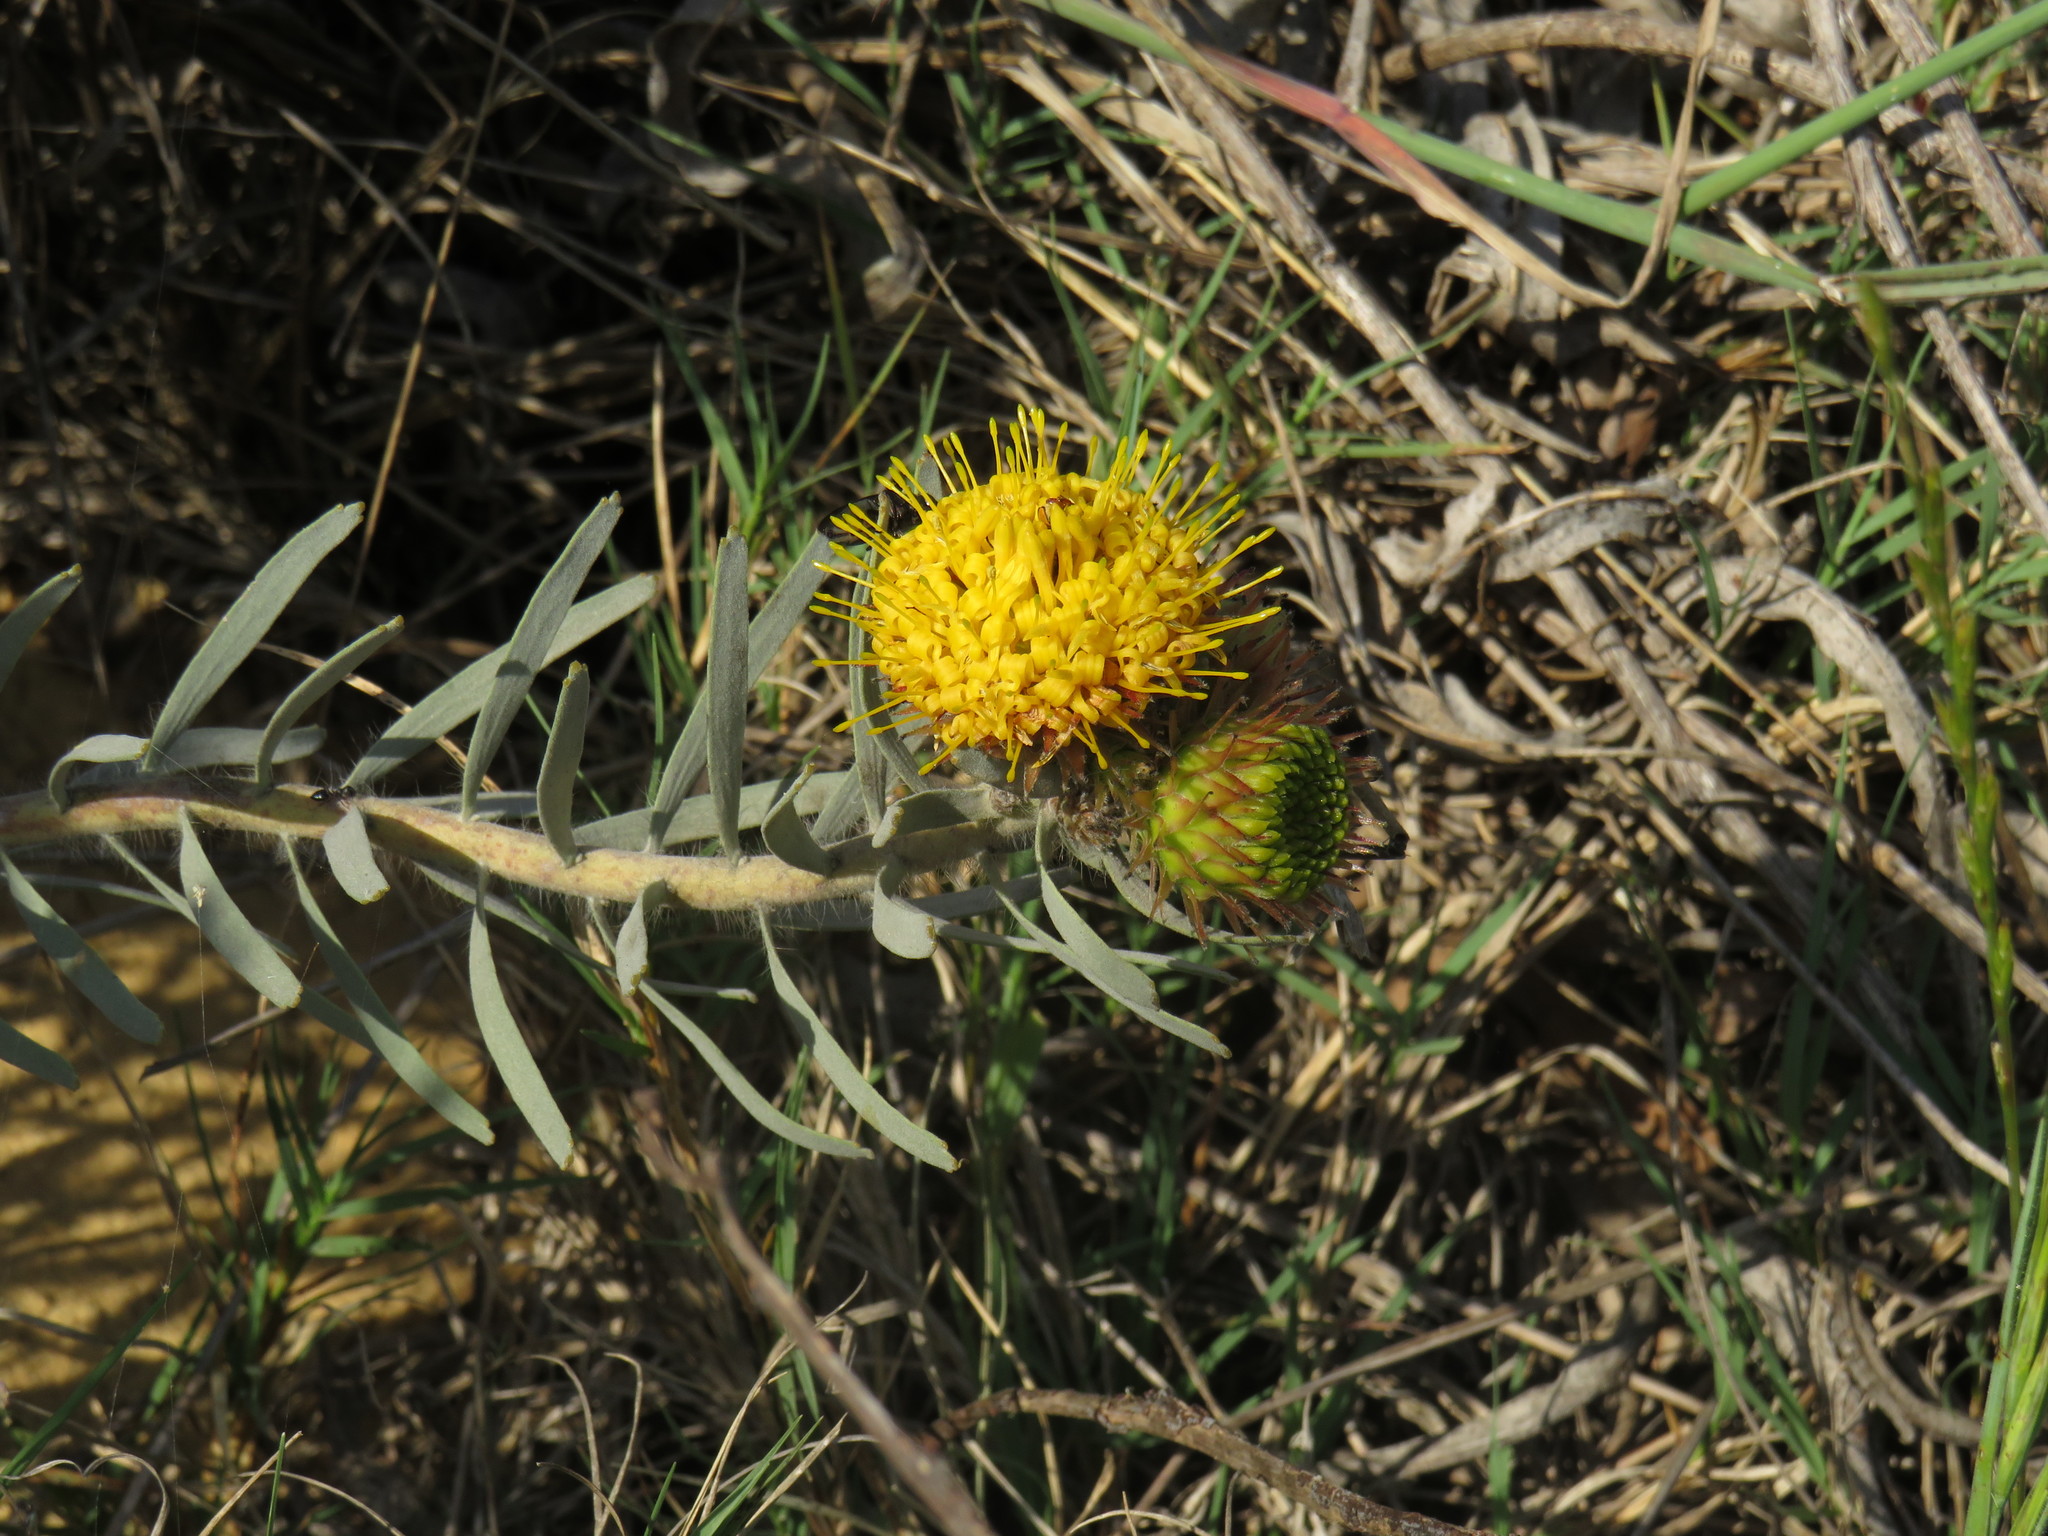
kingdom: Plantae
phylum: Tracheophyta
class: Magnoliopsida
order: Proteales
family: Proteaceae
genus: Leucospermum
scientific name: Leucospermum parile
